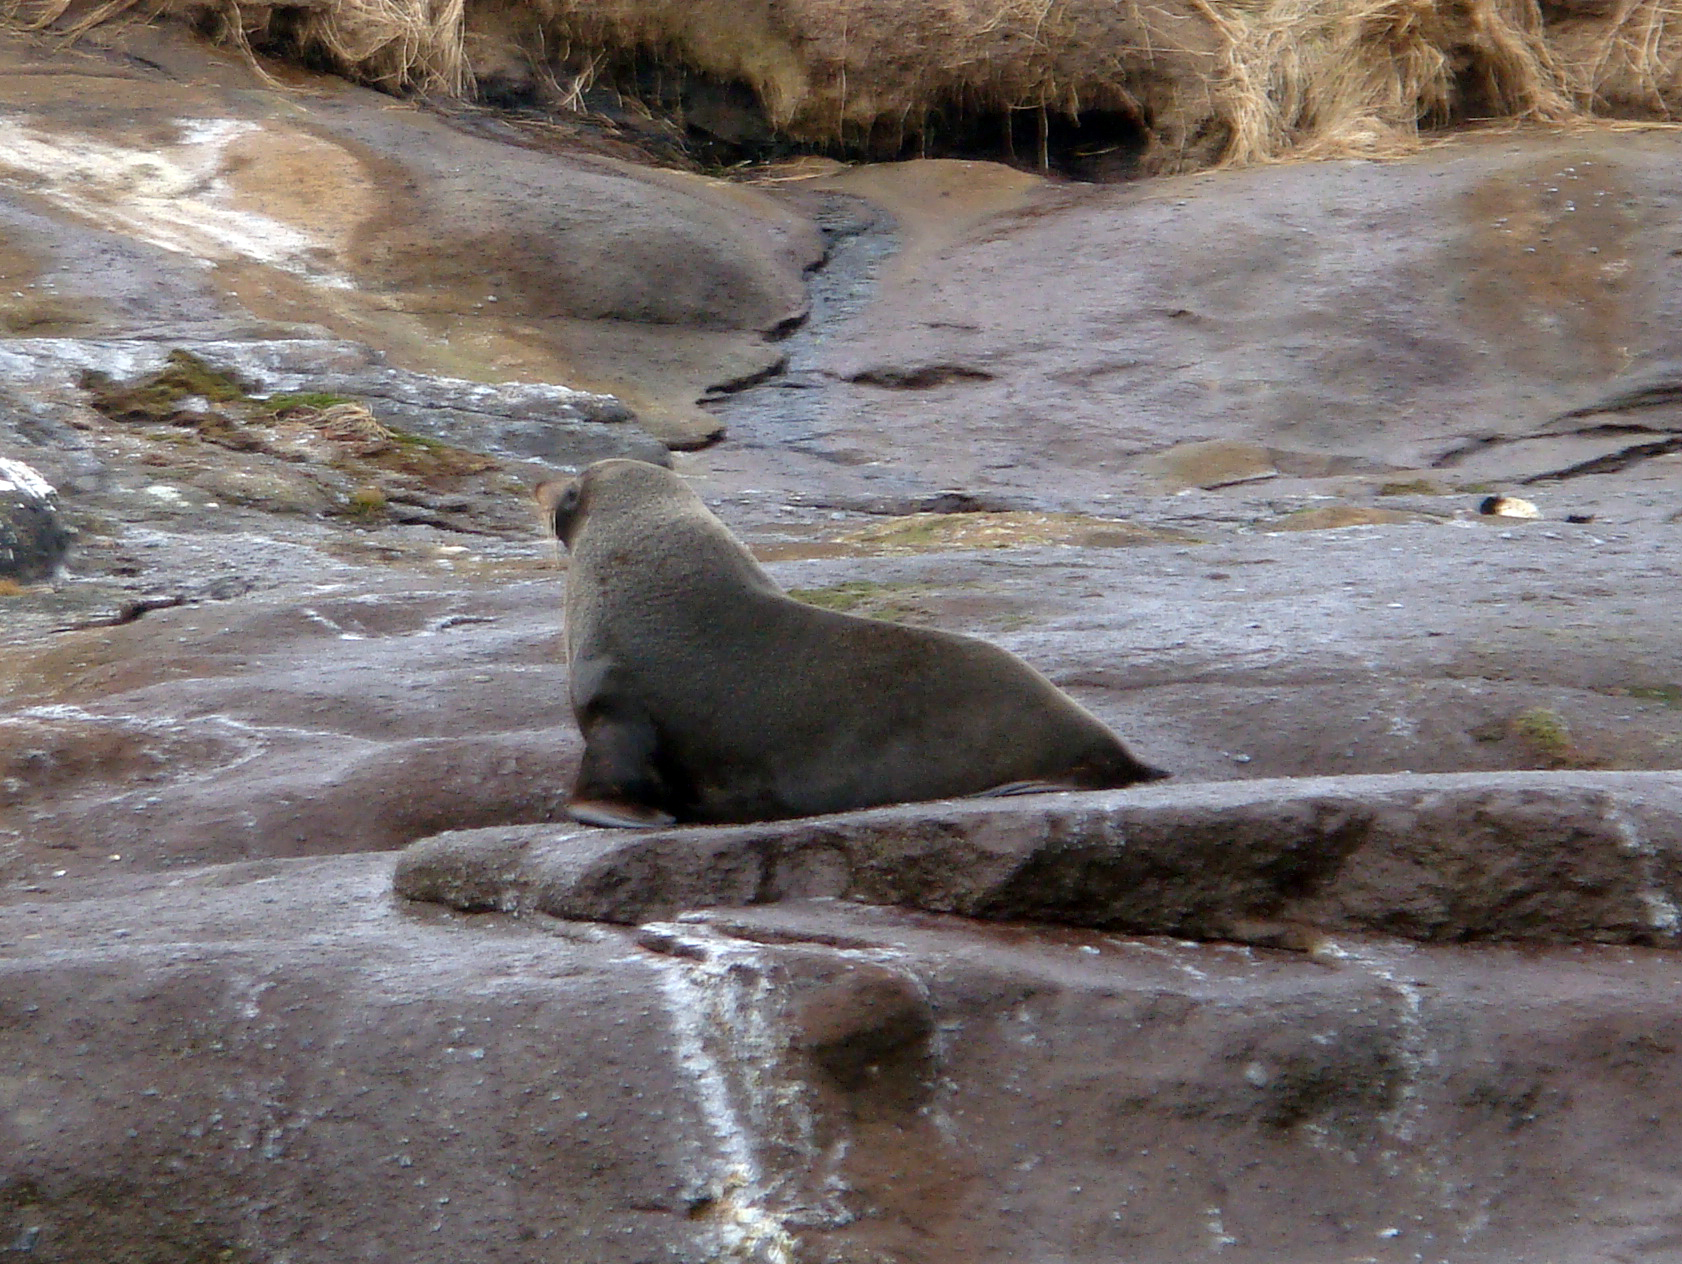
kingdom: Animalia
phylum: Chordata
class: Mammalia
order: Carnivora
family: Otariidae
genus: Arctocephalus
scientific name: Arctocephalus forsteri
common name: New zealand fur seal
